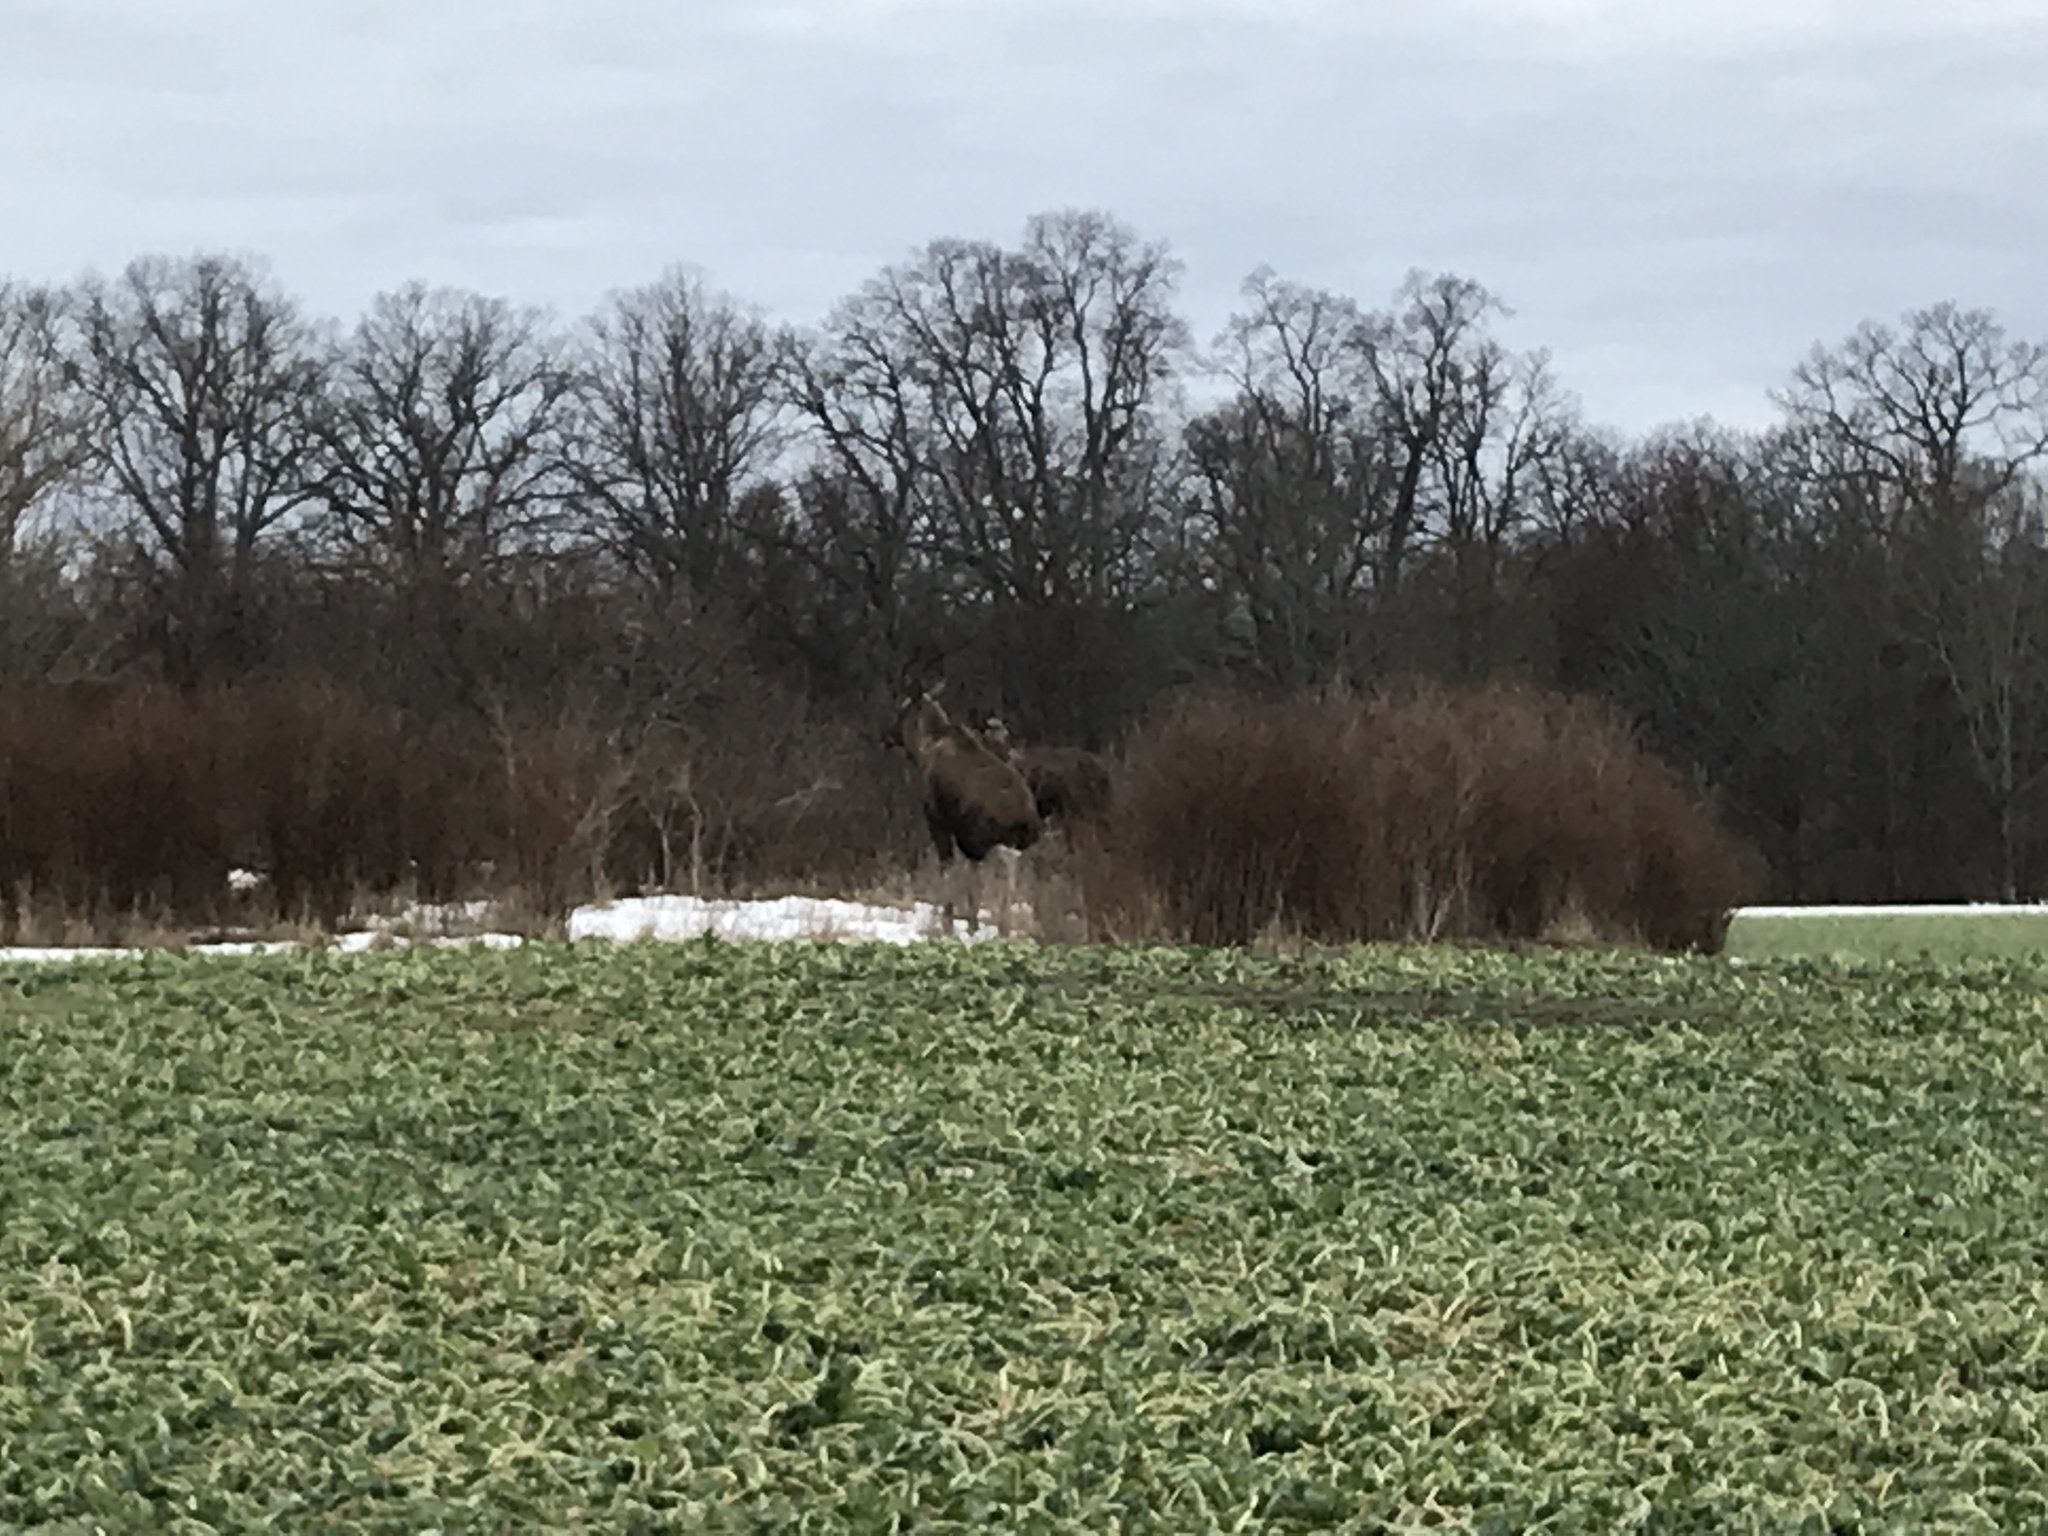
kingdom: Animalia
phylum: Chordata
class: Mammalia
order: Artiodactyla
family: Cervidae
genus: Alces
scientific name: Alces alces
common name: Moose
